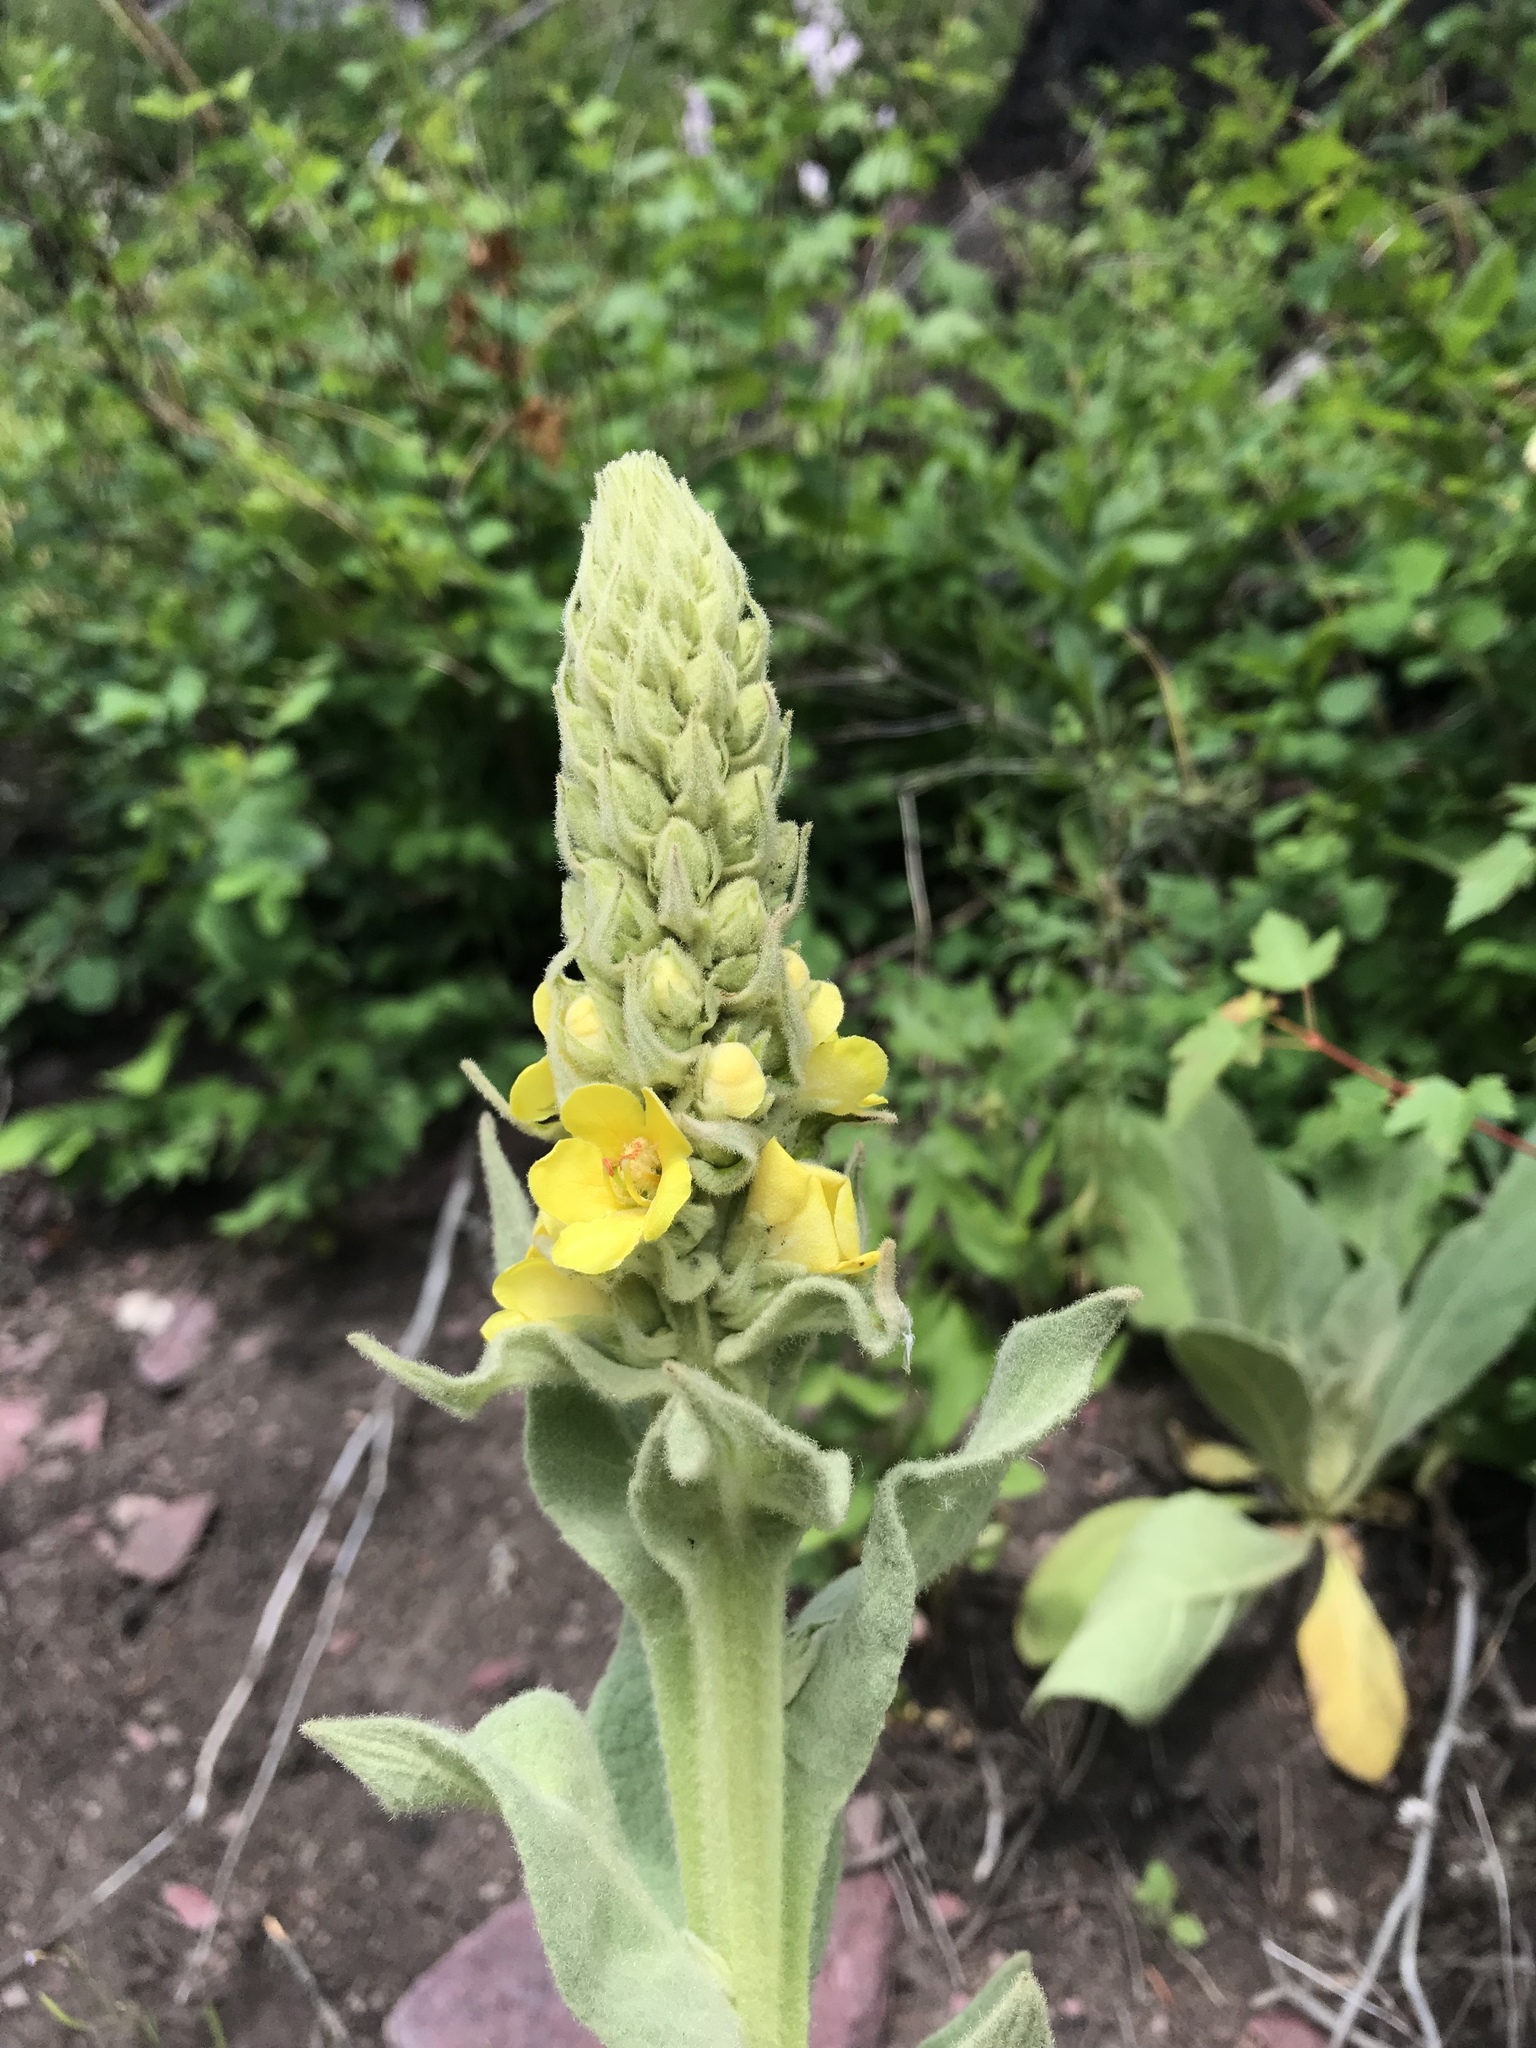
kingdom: Plantae
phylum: Tracheophyta
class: Magnoliopsida
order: Lamiales
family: Scrophulariaceae
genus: Verbascum
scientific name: Verbascum thapsus
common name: Common mullein
